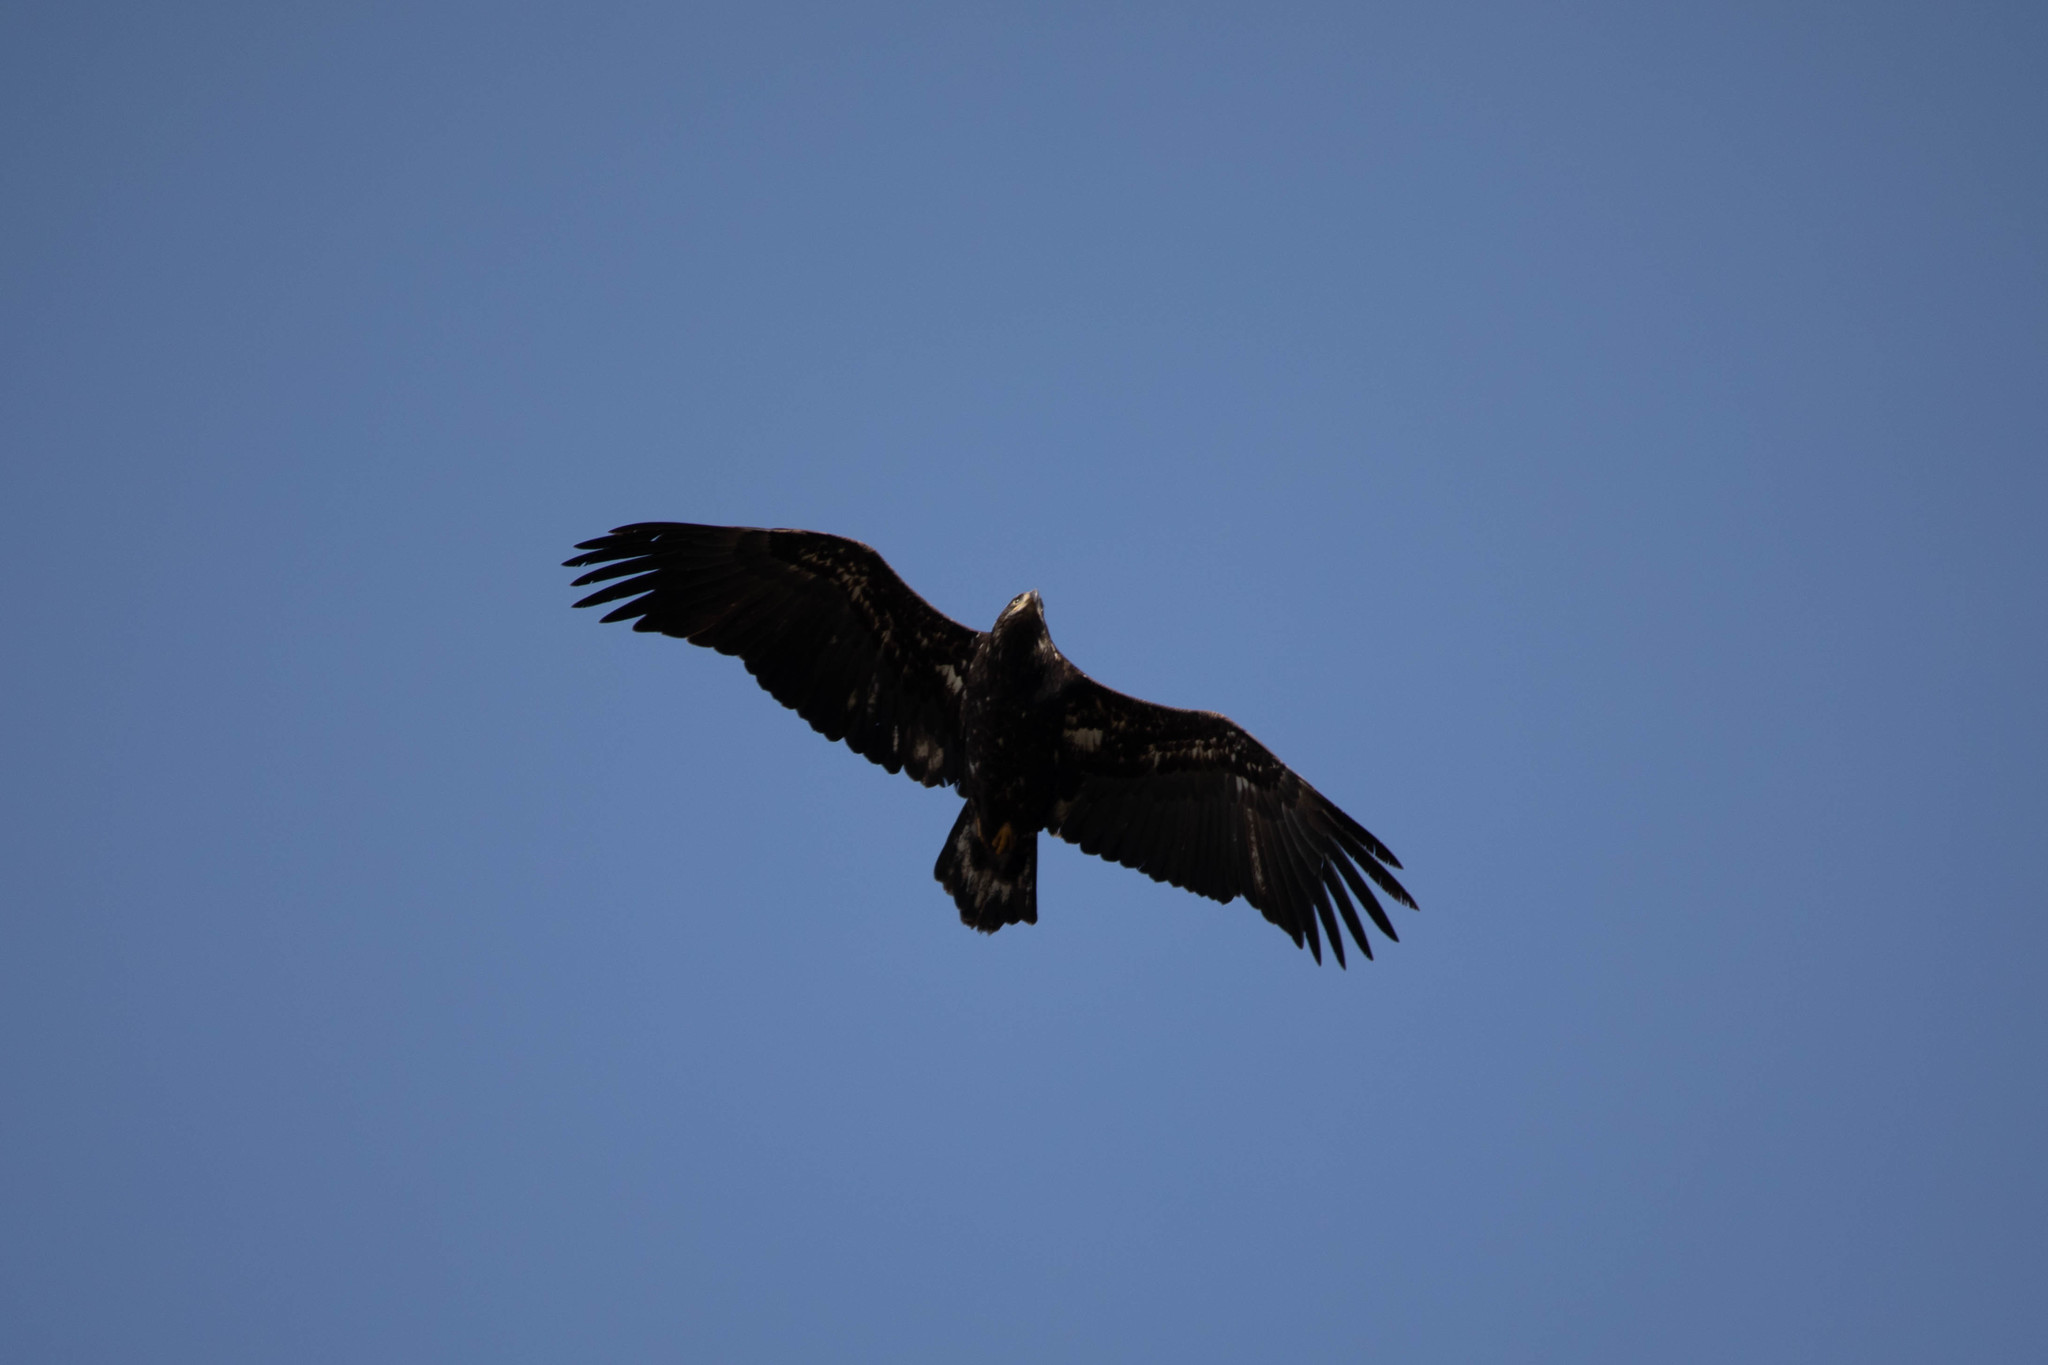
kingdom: Animalia
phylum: Chordata
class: Aves
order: Accipitriformes
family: Accipitridae
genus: Haliaeetus
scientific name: Haliaeetus leucocephalus
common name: Bald eagle
